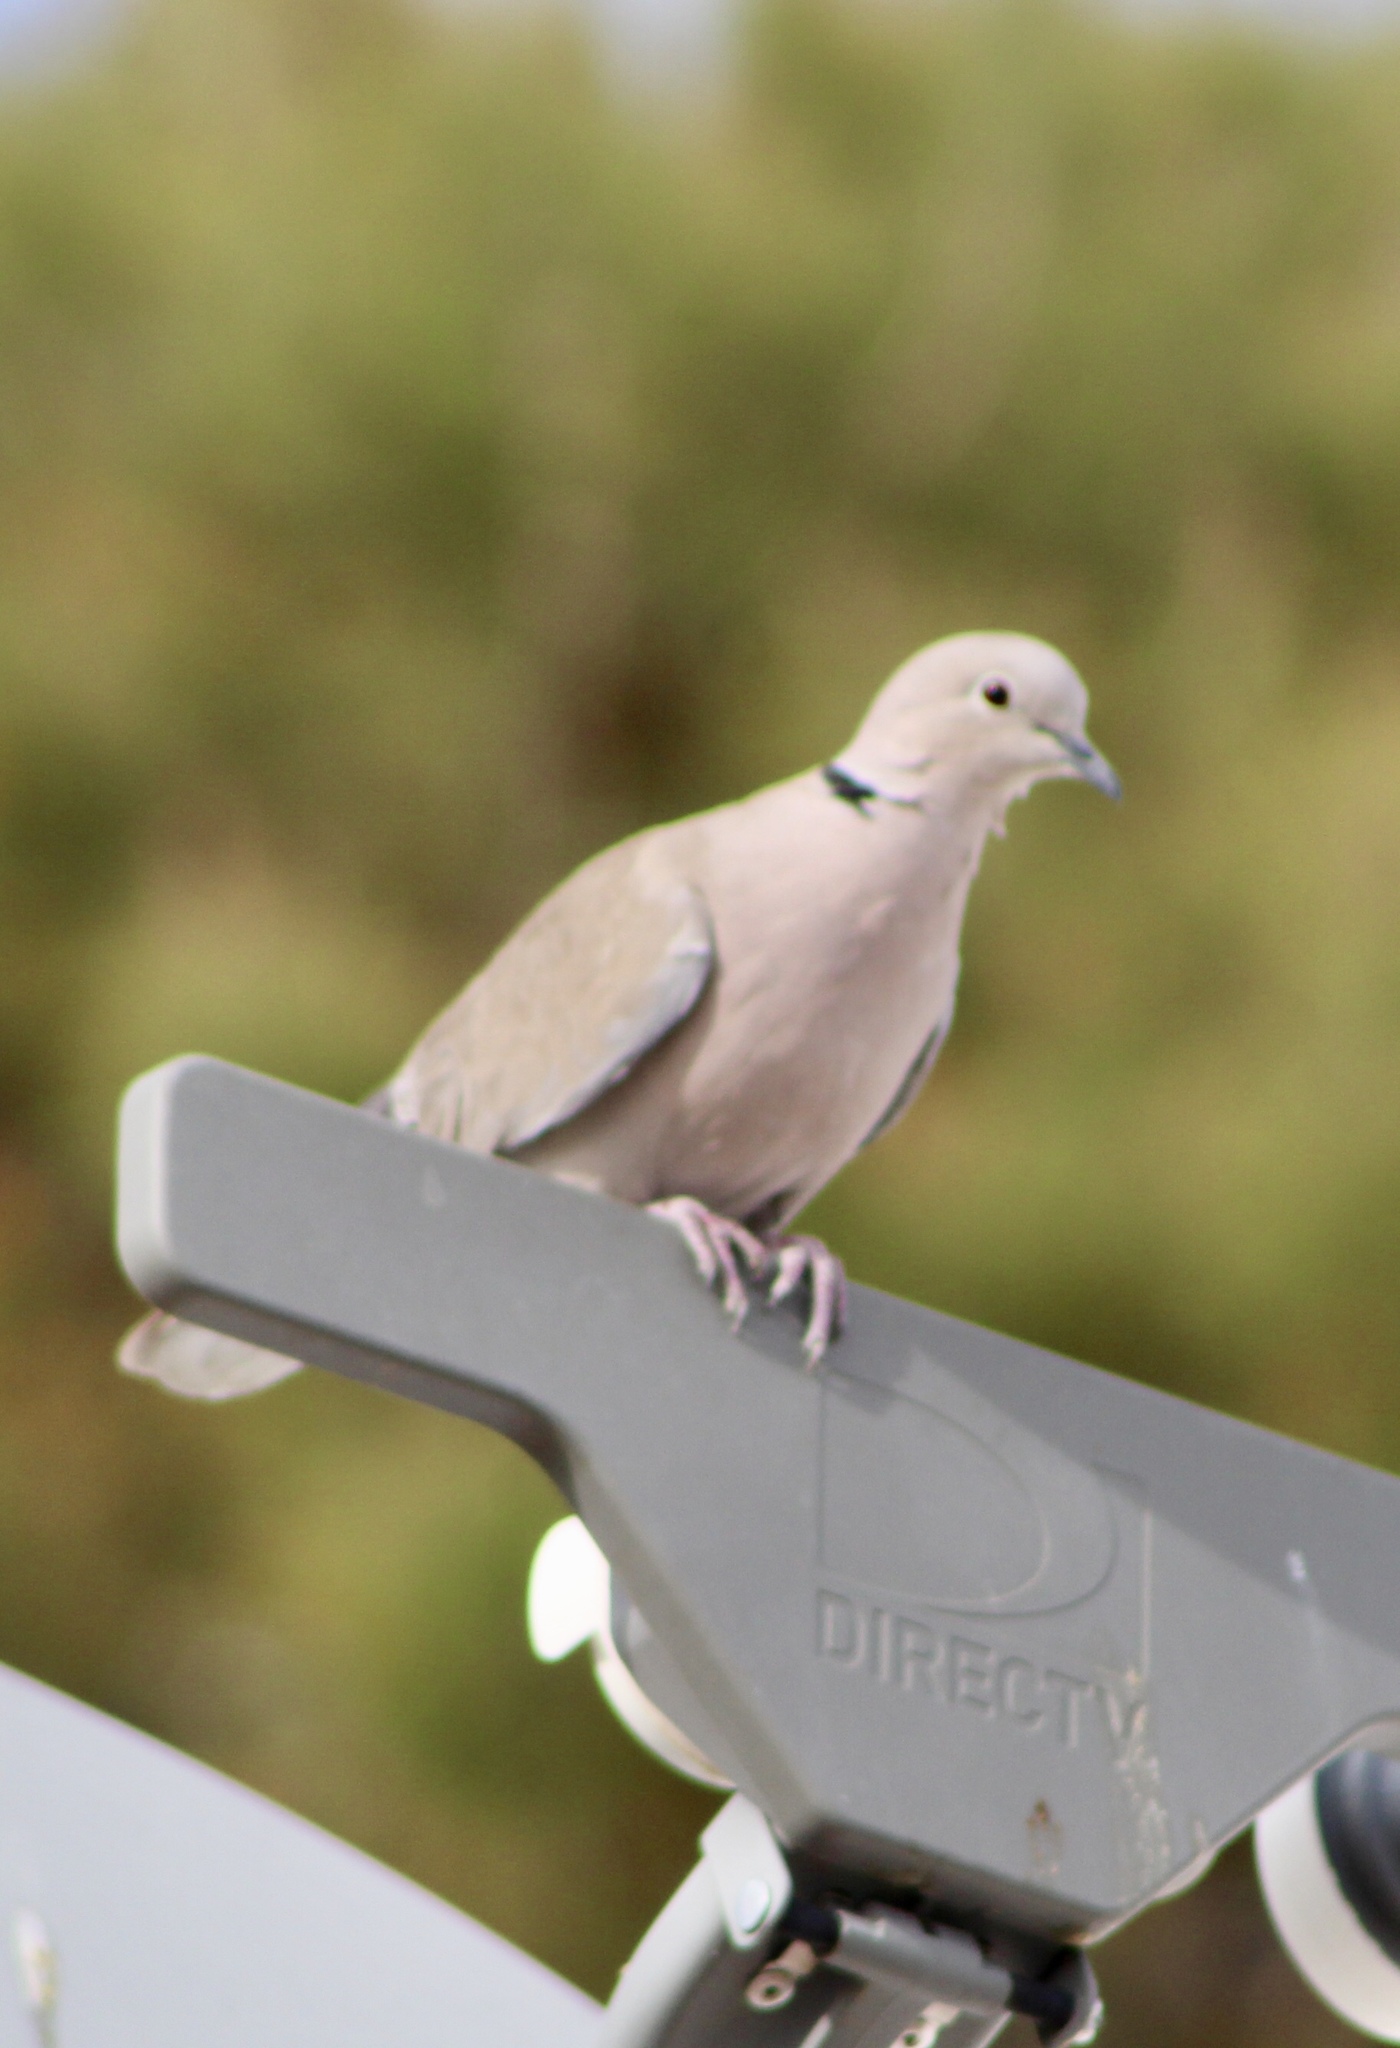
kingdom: Animalia
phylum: Chordata
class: Aves
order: Columbiformes
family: Columbidae
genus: Streptopelia
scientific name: Streptopelia decaocto
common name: Eurasian collared dove
